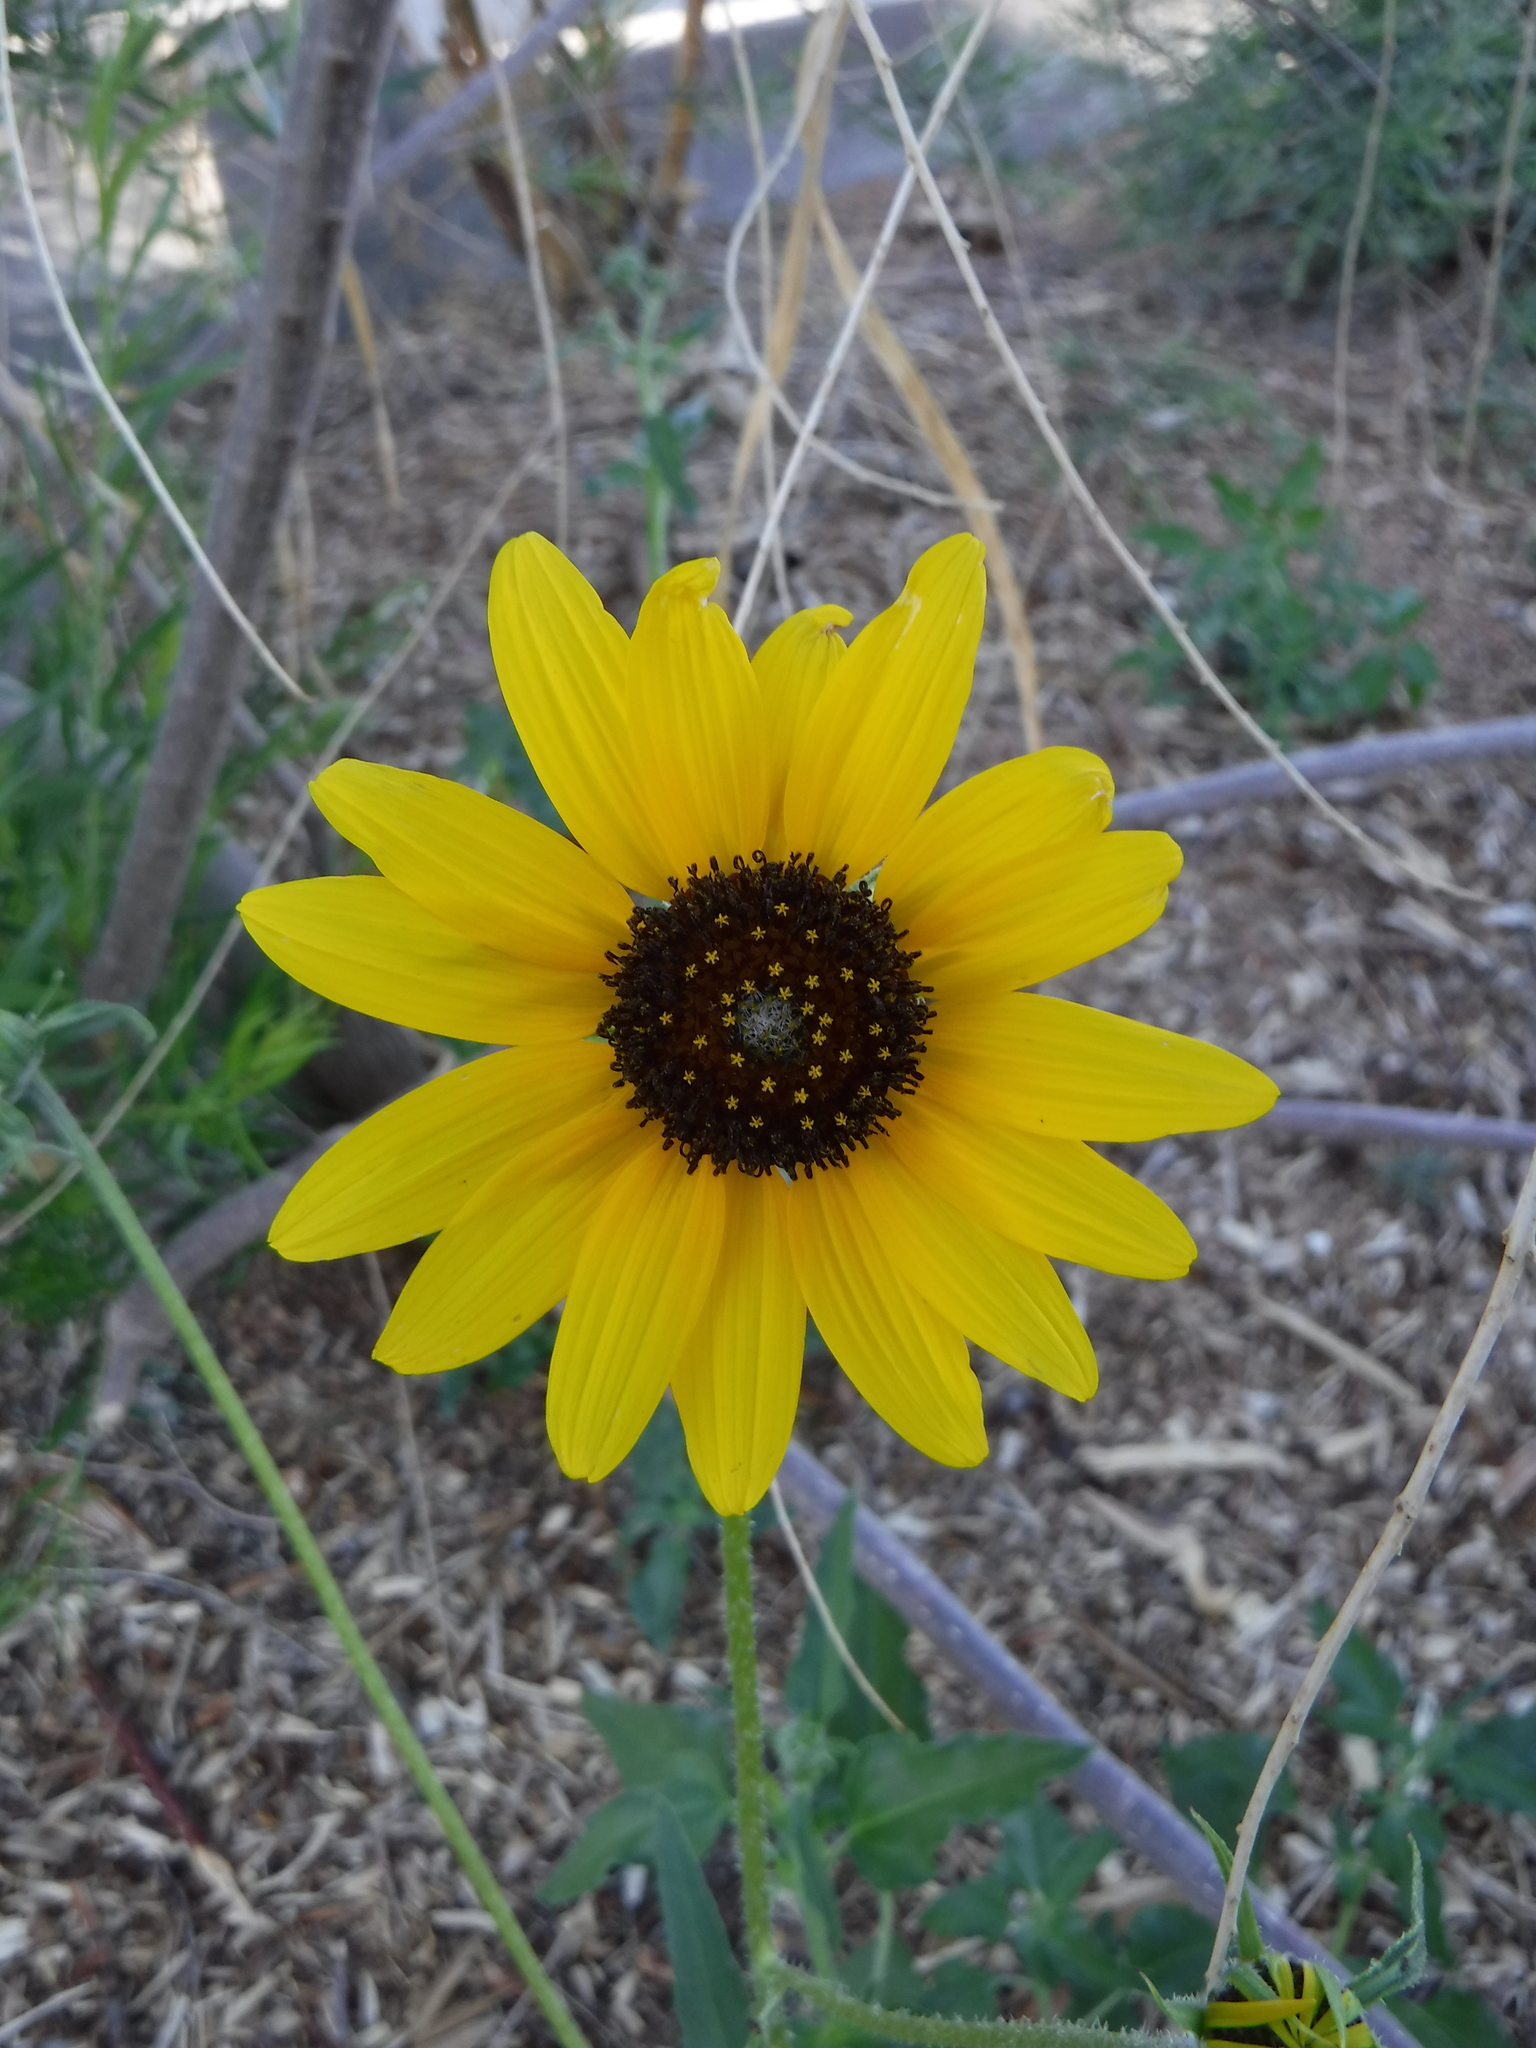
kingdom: Plantae
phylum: Tracheophyta
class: Magnoliopsida
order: Asterales
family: Asteraceae
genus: Helianthus
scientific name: Helianthus petiolaris
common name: Lesser sunflower
